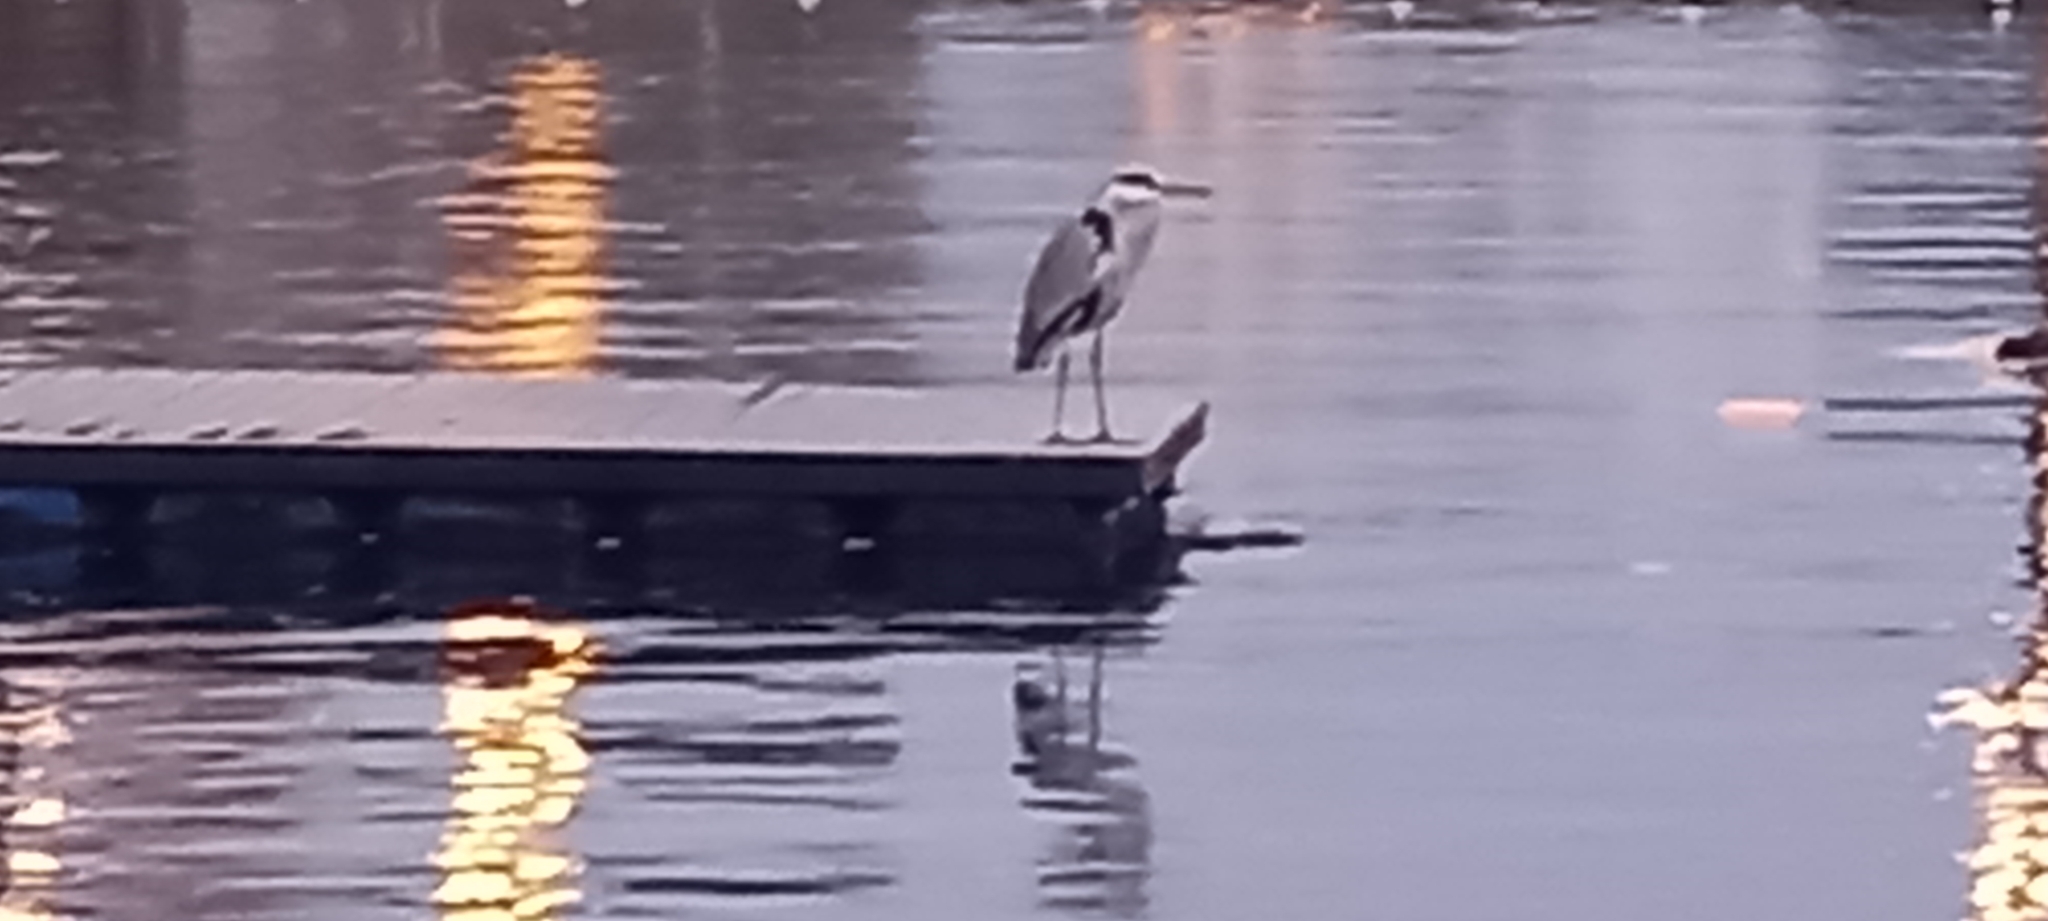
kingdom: Animalia
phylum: Chordata
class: Aves
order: Pelecaniformes
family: Ardeidae
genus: Ardea
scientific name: Ardea cinerea
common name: Grey heron
